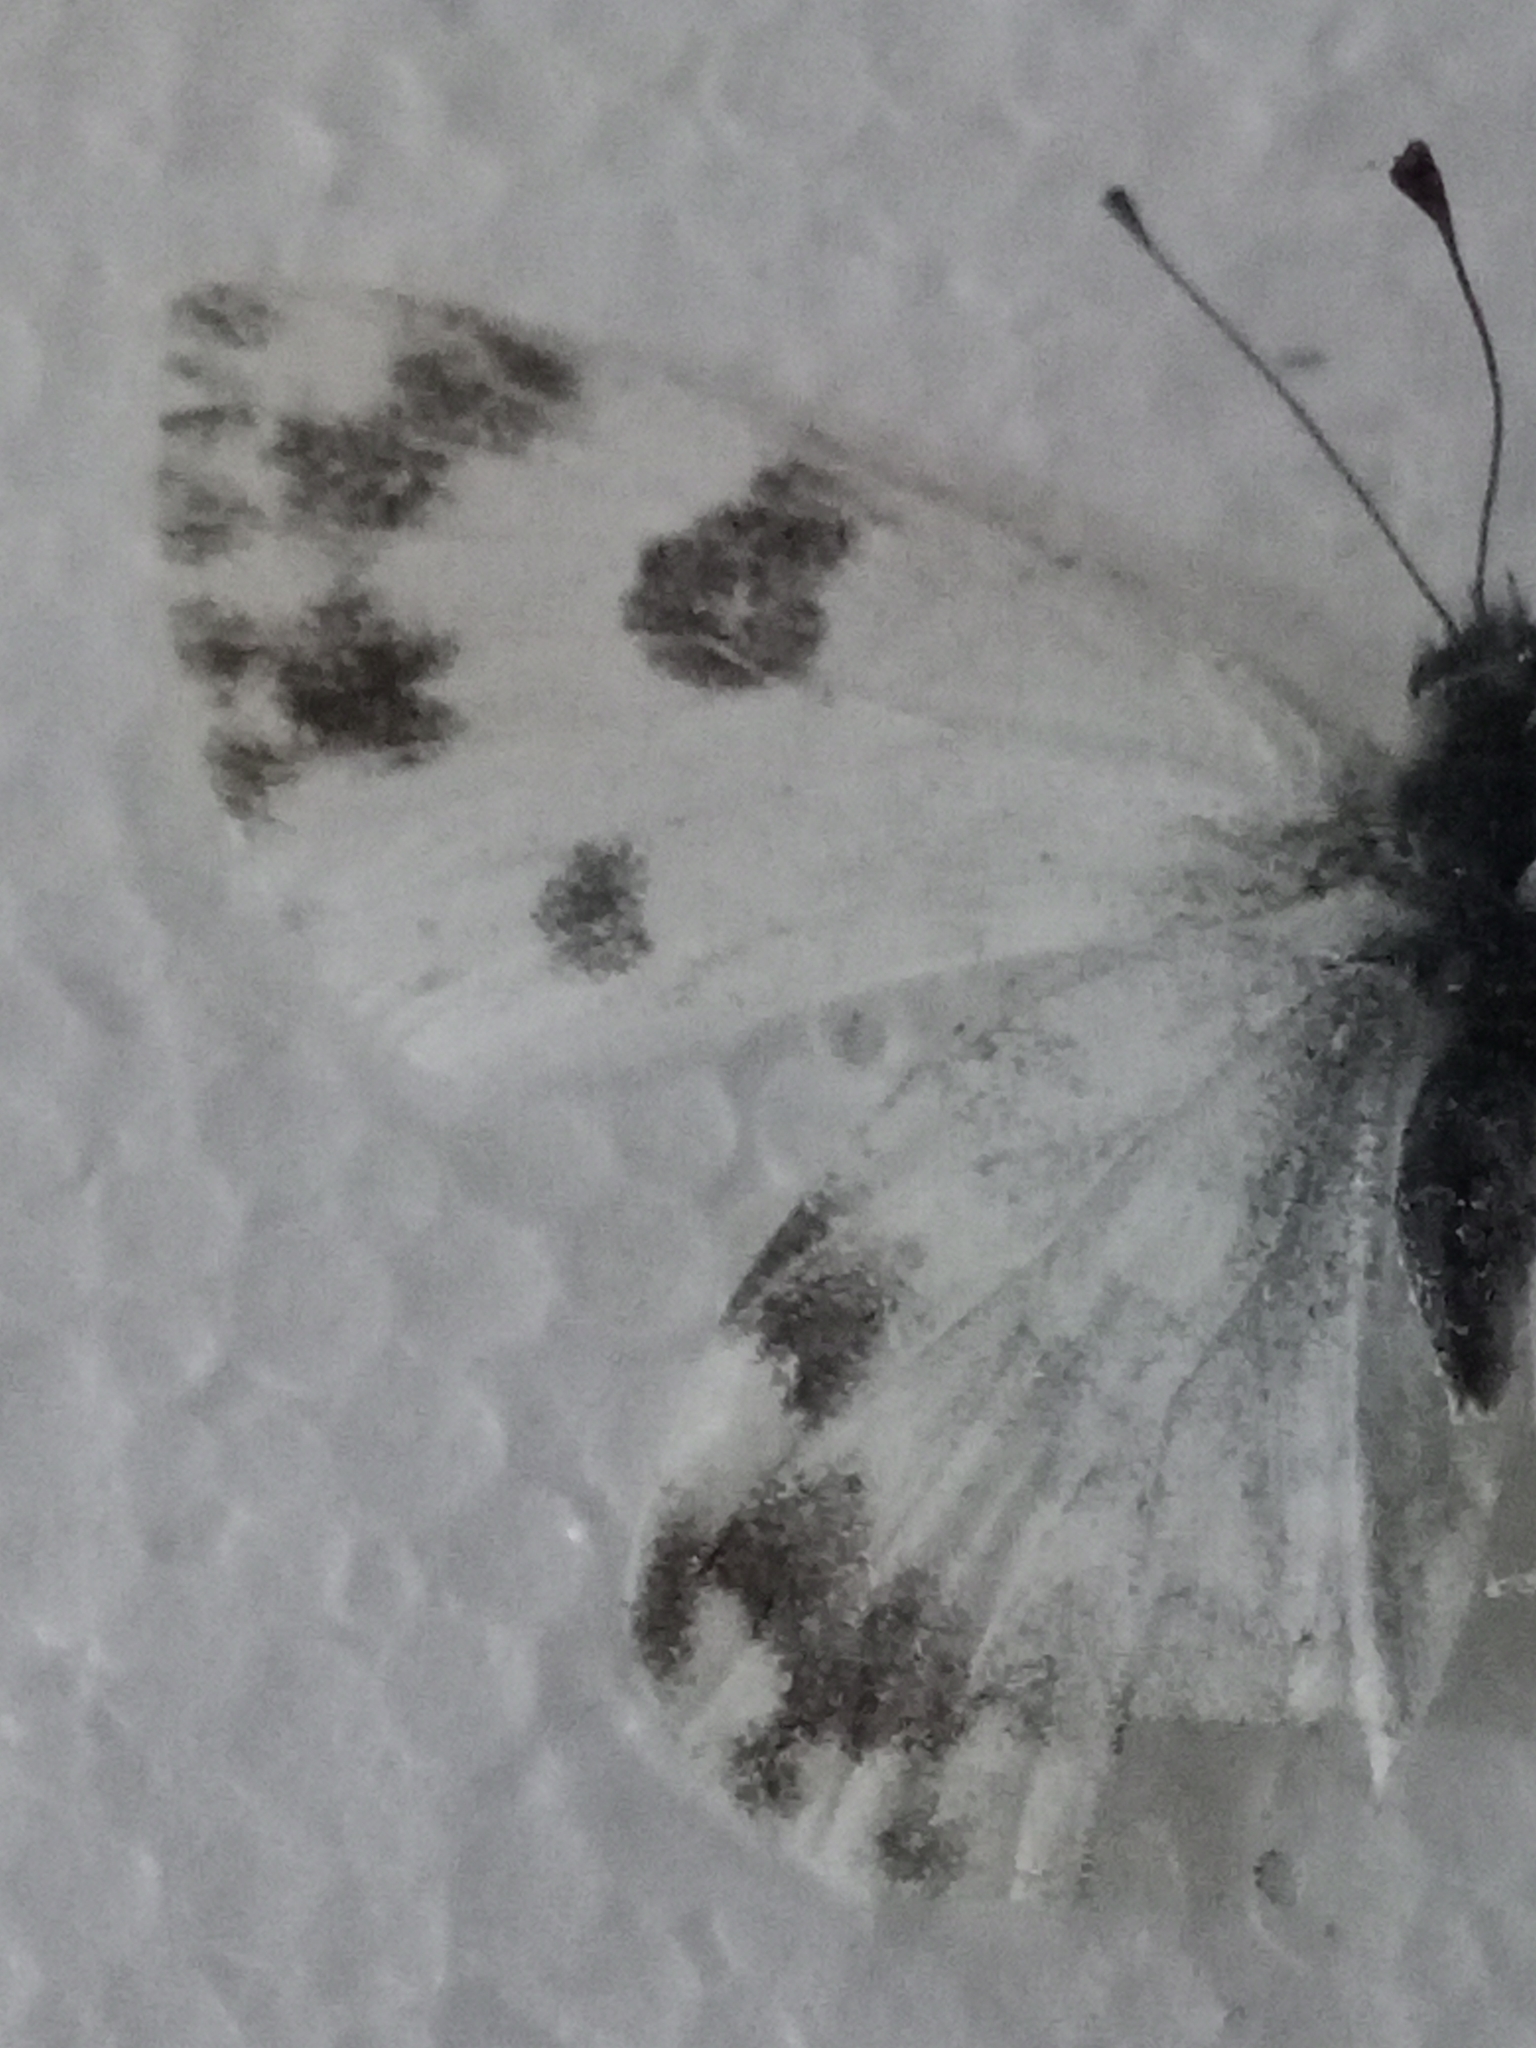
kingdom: Animalia
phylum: Arthropoda
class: Insecta
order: Lepidoptera
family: Pieridae
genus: Pontia
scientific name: Pontia daplidice
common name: Bath white
